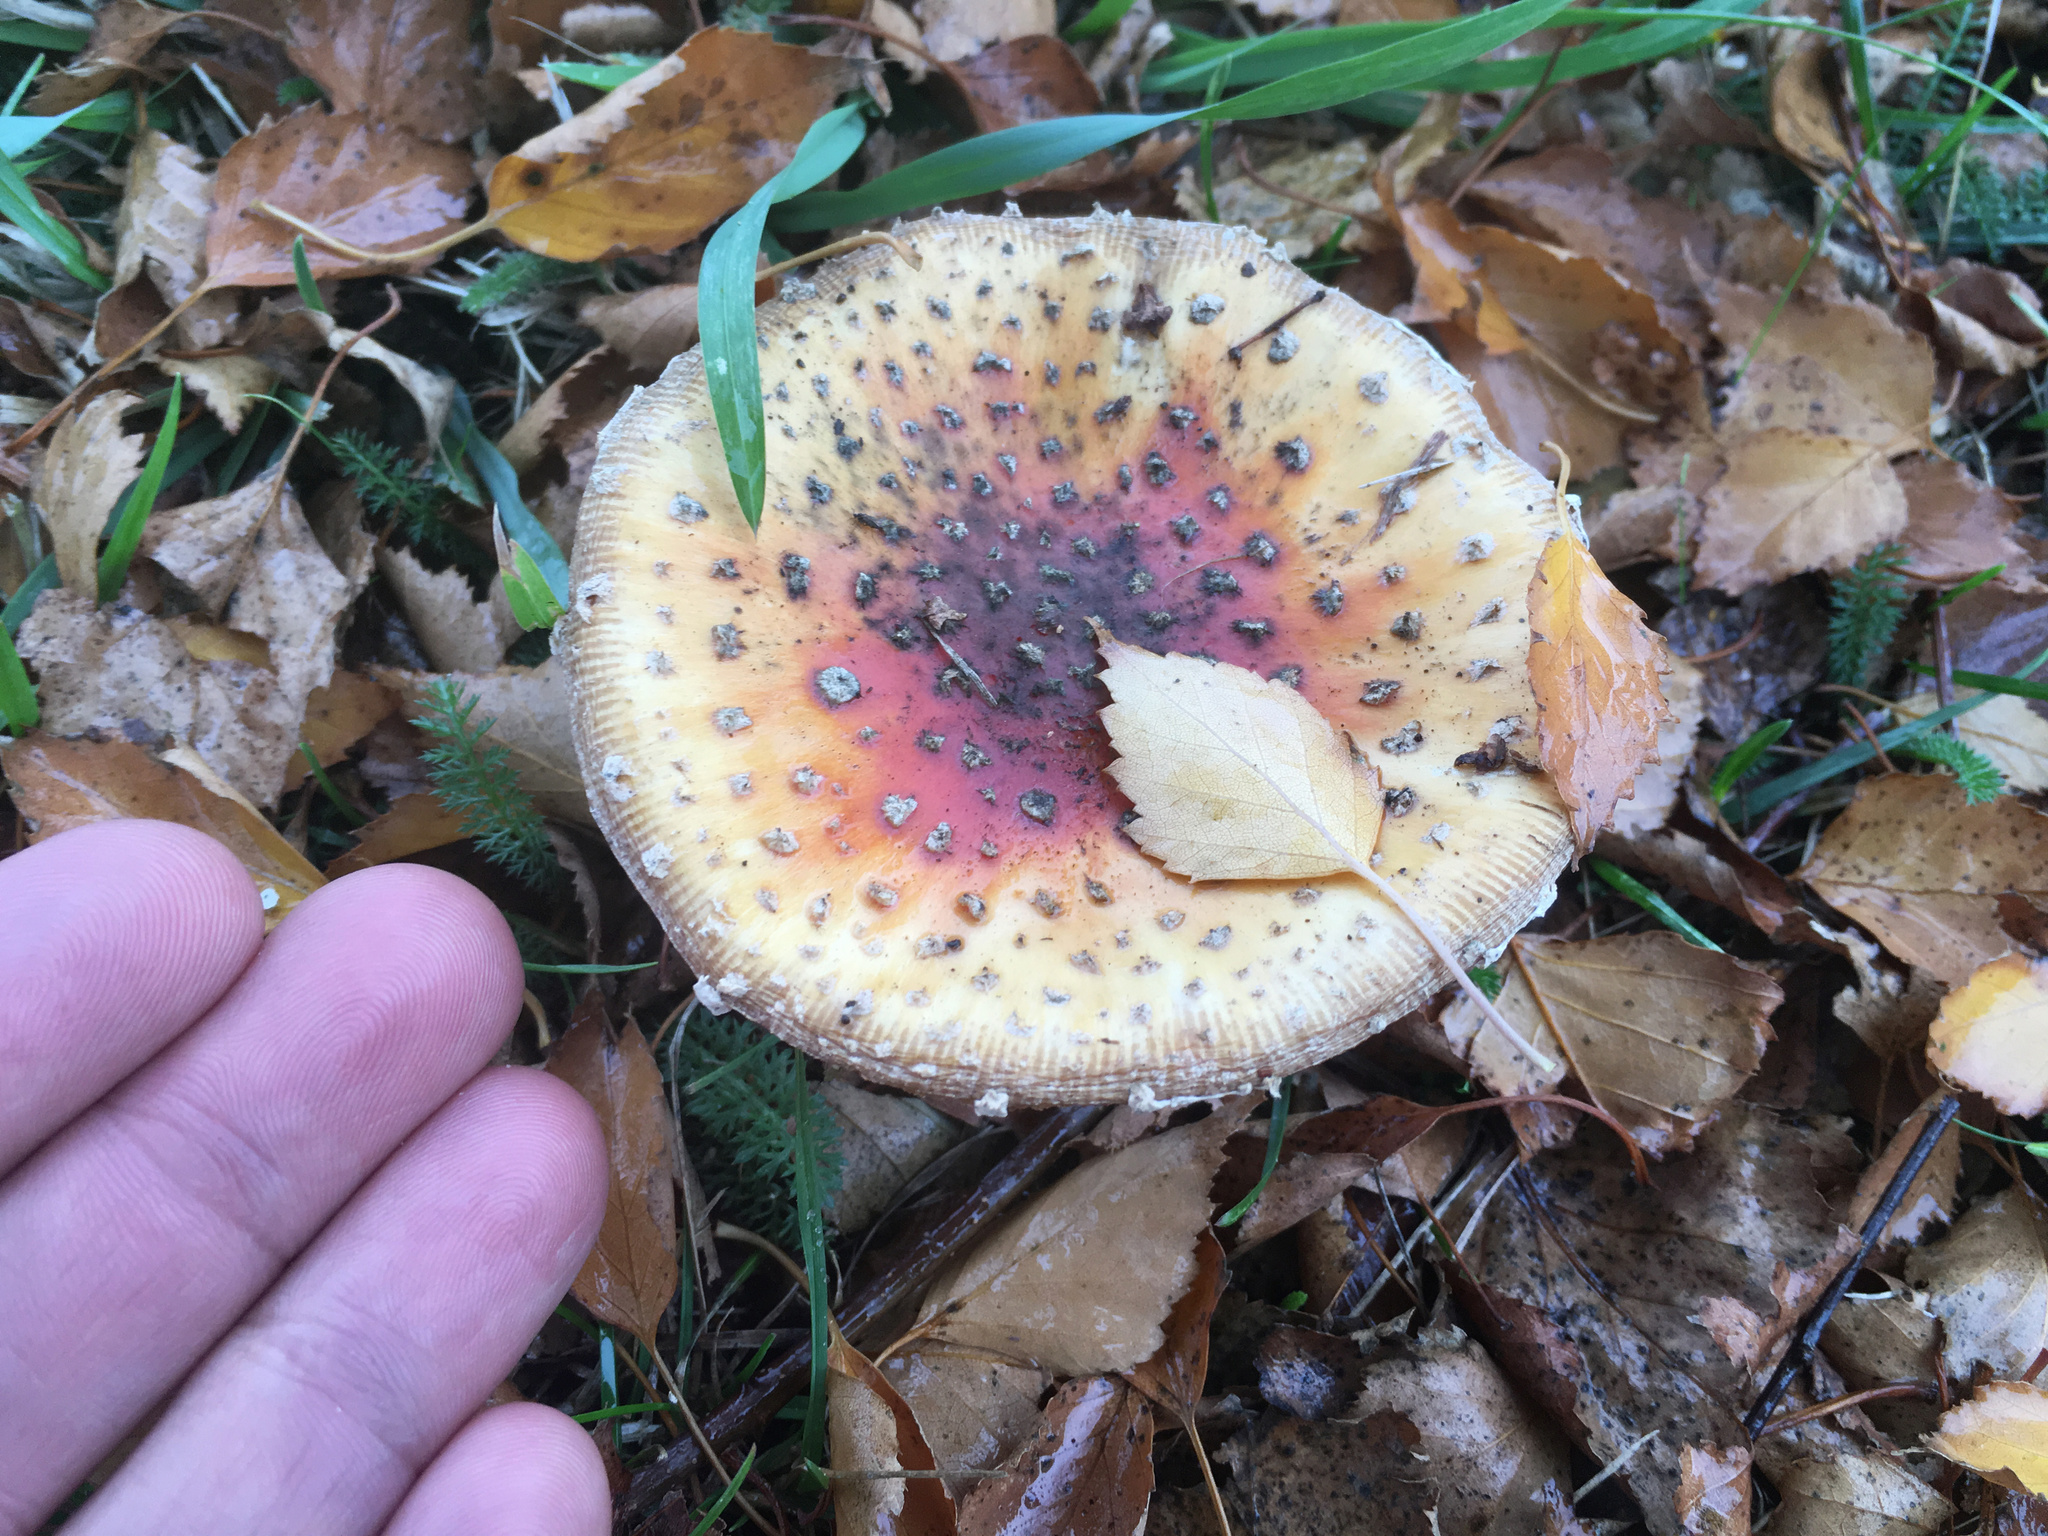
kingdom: Fungi
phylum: Basidiomycota
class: Agaricomycetes
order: Agaricales
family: Amanitaceae
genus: Amanita
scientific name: Amanita muscaria
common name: Fly agaric
